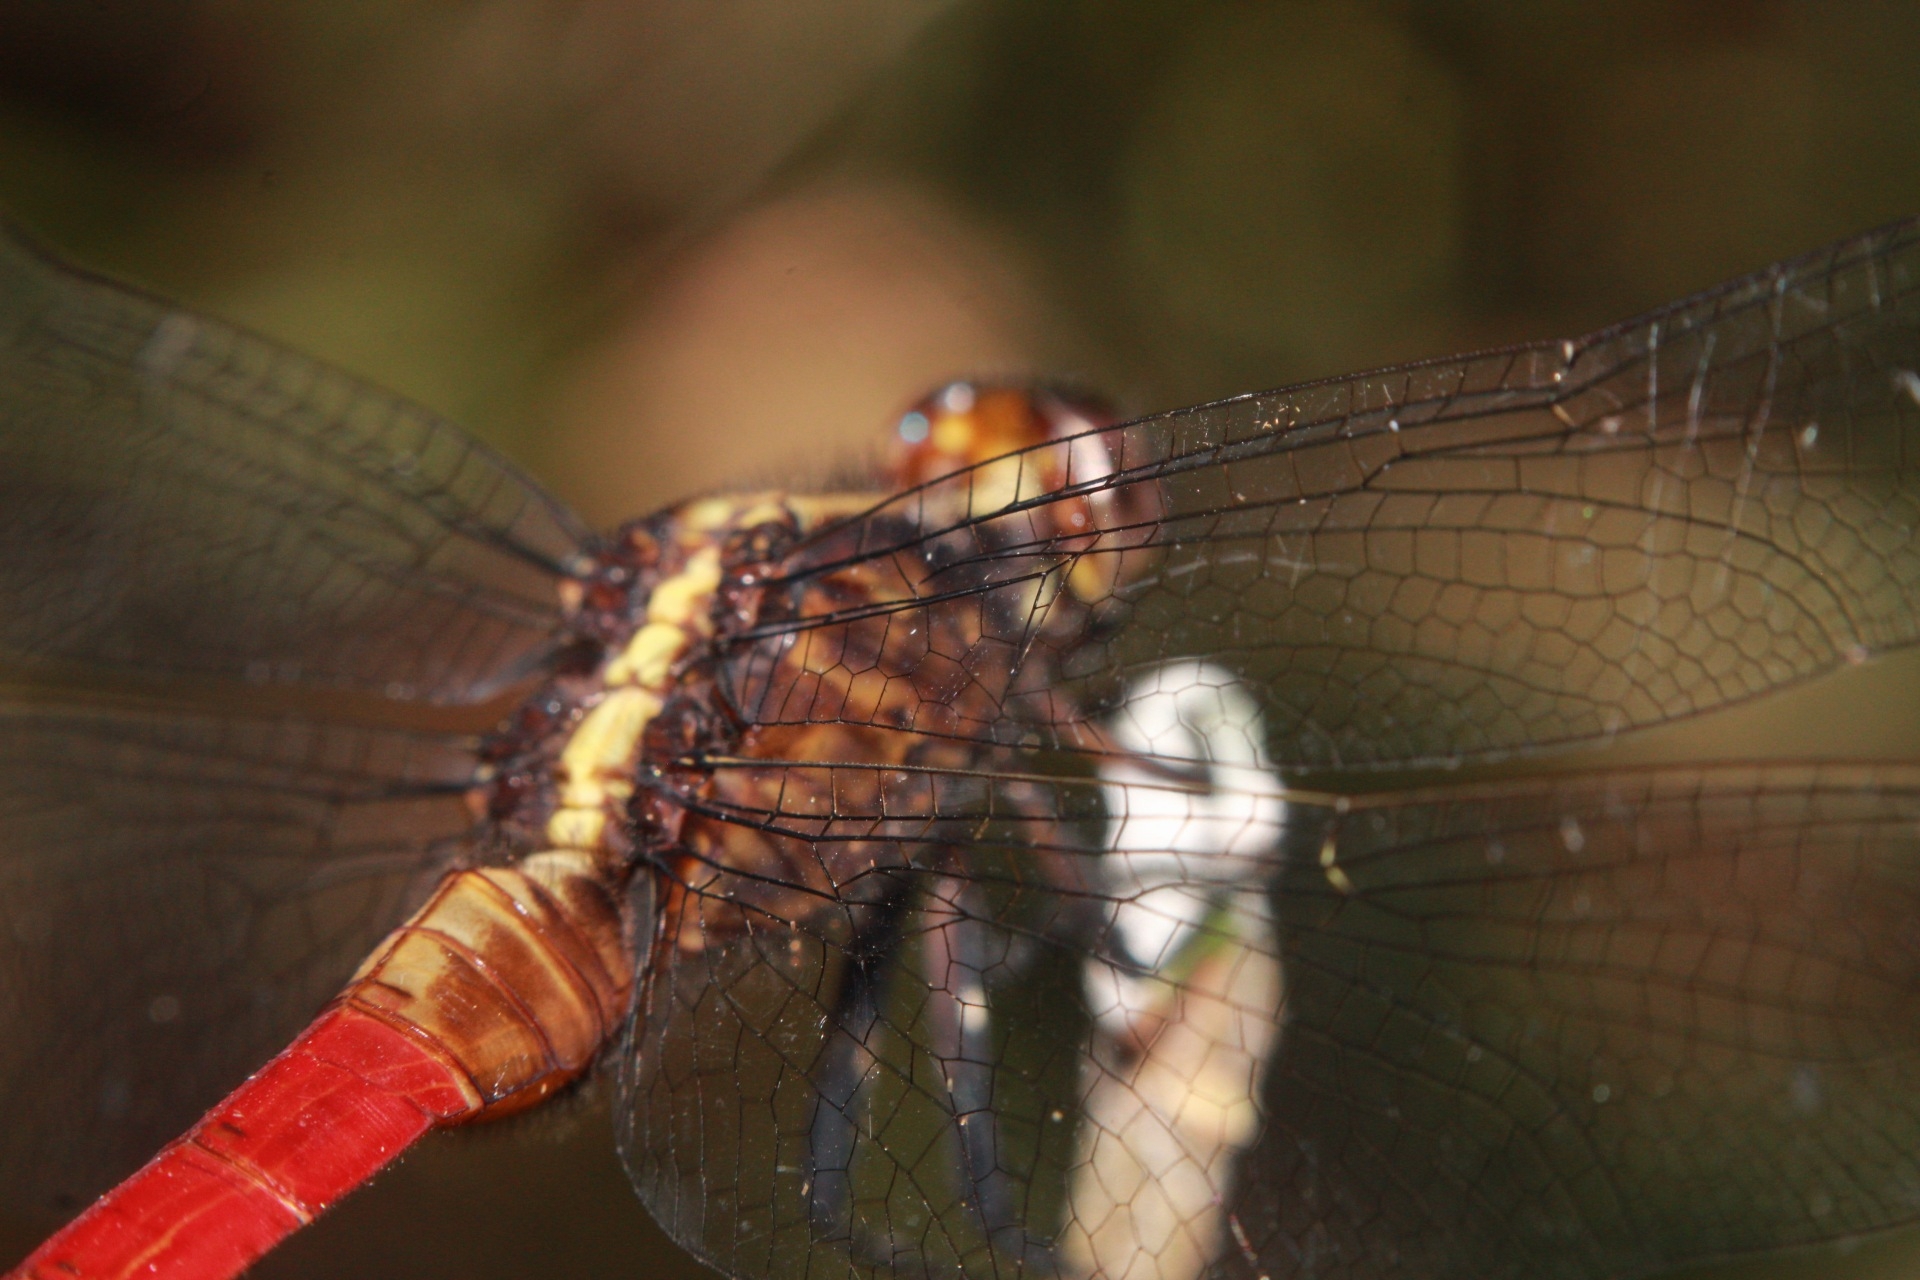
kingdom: Animalia
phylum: Arthropoda
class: Insecta
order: Odonata
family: Libellulidae
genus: Erythemis
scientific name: Erythemis peruviana
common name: Flame-tailed pondhawk
